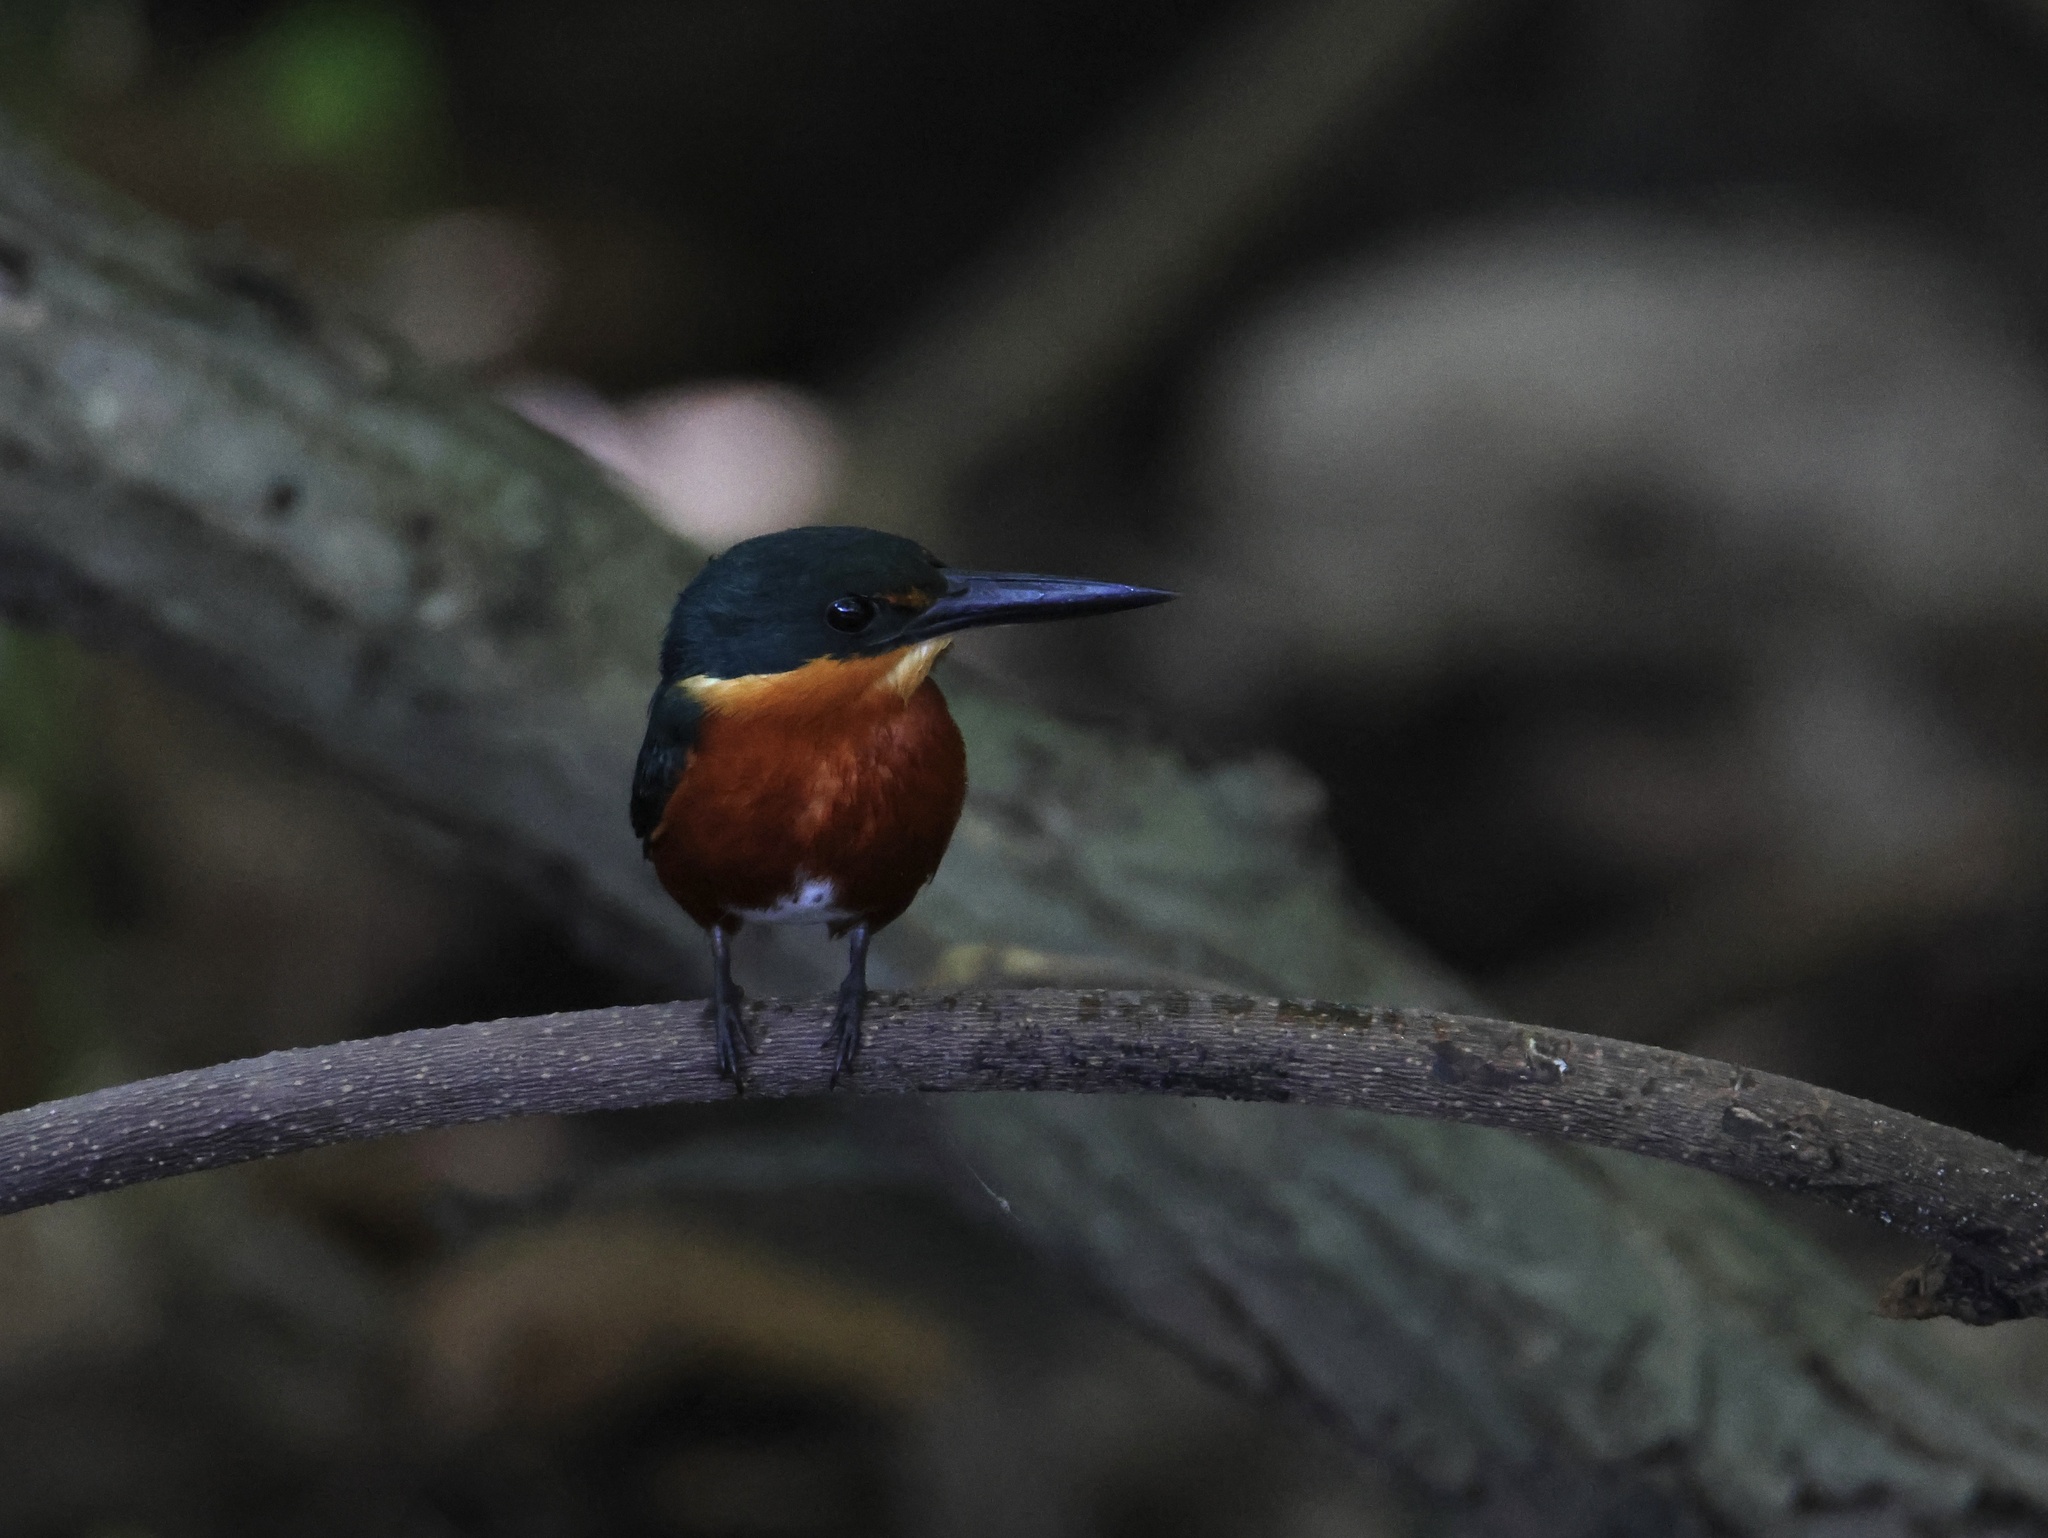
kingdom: Animalia
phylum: Chordata
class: Aves
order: Coraciiformes
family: Alcedinidae
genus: Chloroceryle
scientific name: Chloroceryle aenea
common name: American pygmy kingfisher
